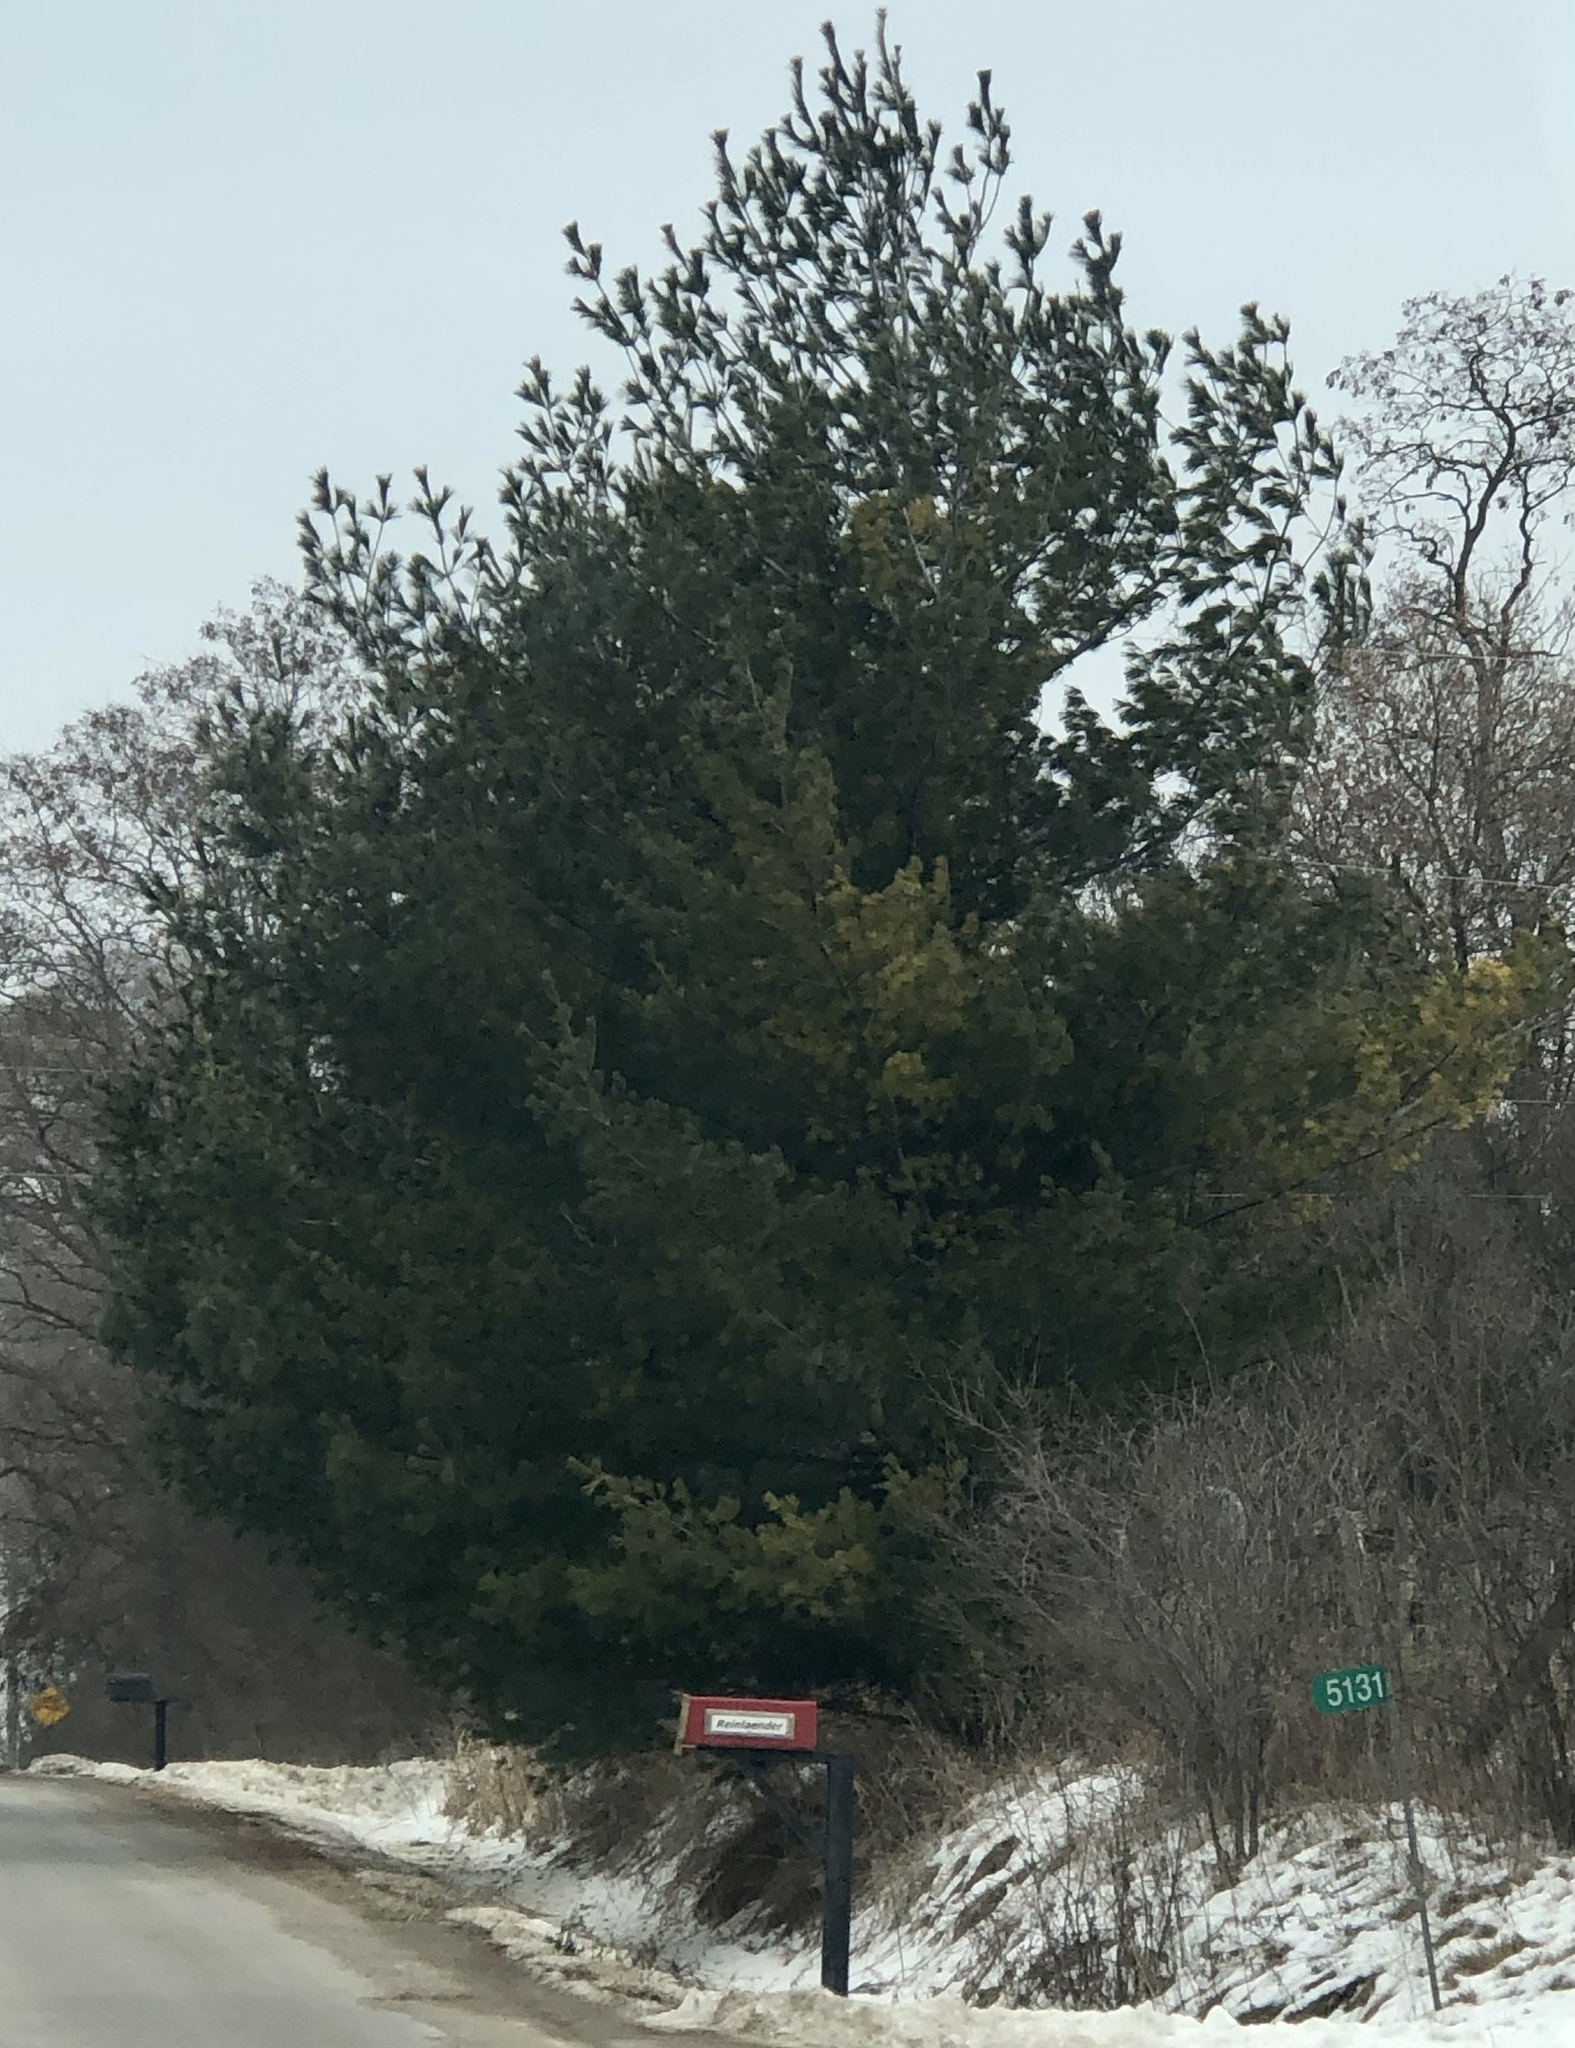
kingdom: Plantae
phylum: Tracheophyta
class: Pinopsida
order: Pinales
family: Pinaceae
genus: Pinus
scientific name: Pinus strobus
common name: Weymouth pine
